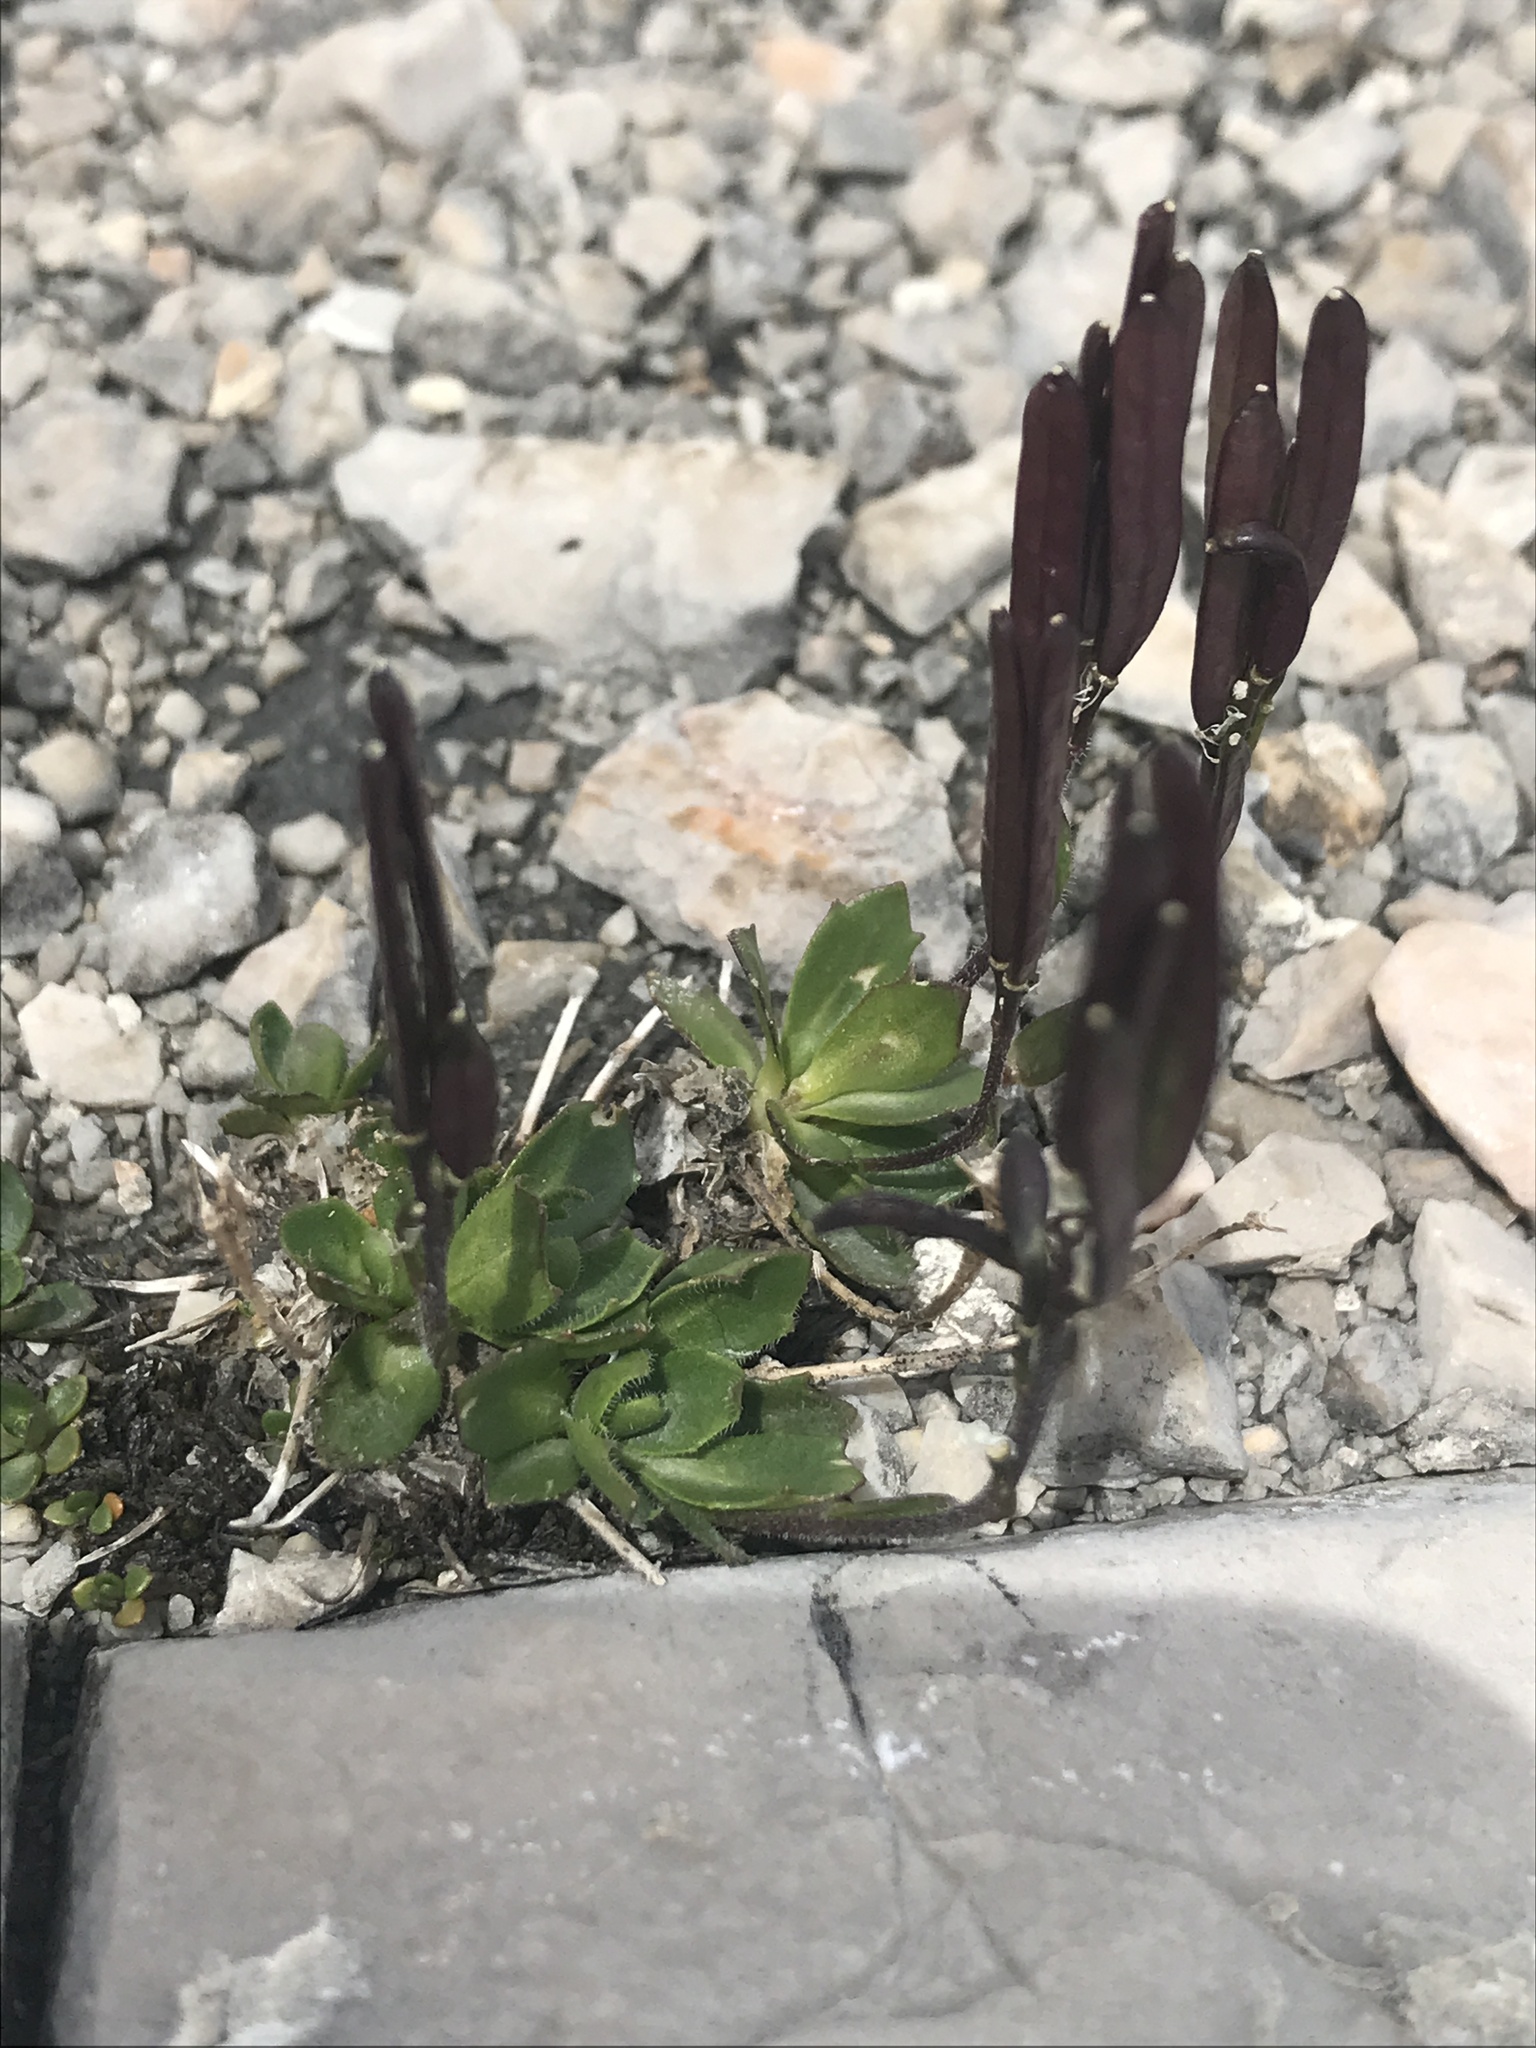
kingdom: Plantae
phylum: Tracheophyta
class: Magnoliopsida
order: Brassicales
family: Brassicaceae
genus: Cardamine
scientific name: Cardamine bellidifolia
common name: Alpine bittercress
